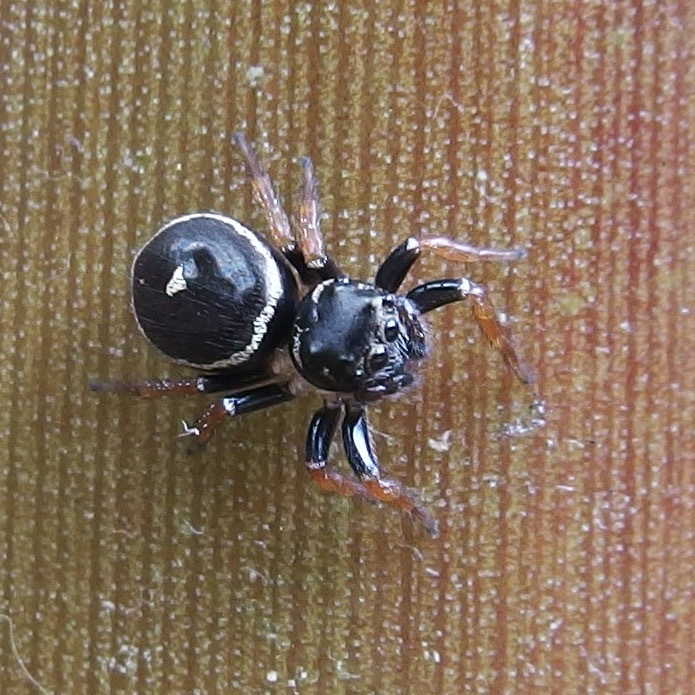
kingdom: Animalia
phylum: Arthropoda
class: Arachnida
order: Araneae
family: Salticidae
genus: Zenodorus
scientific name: Zenodorus orbiculatus
